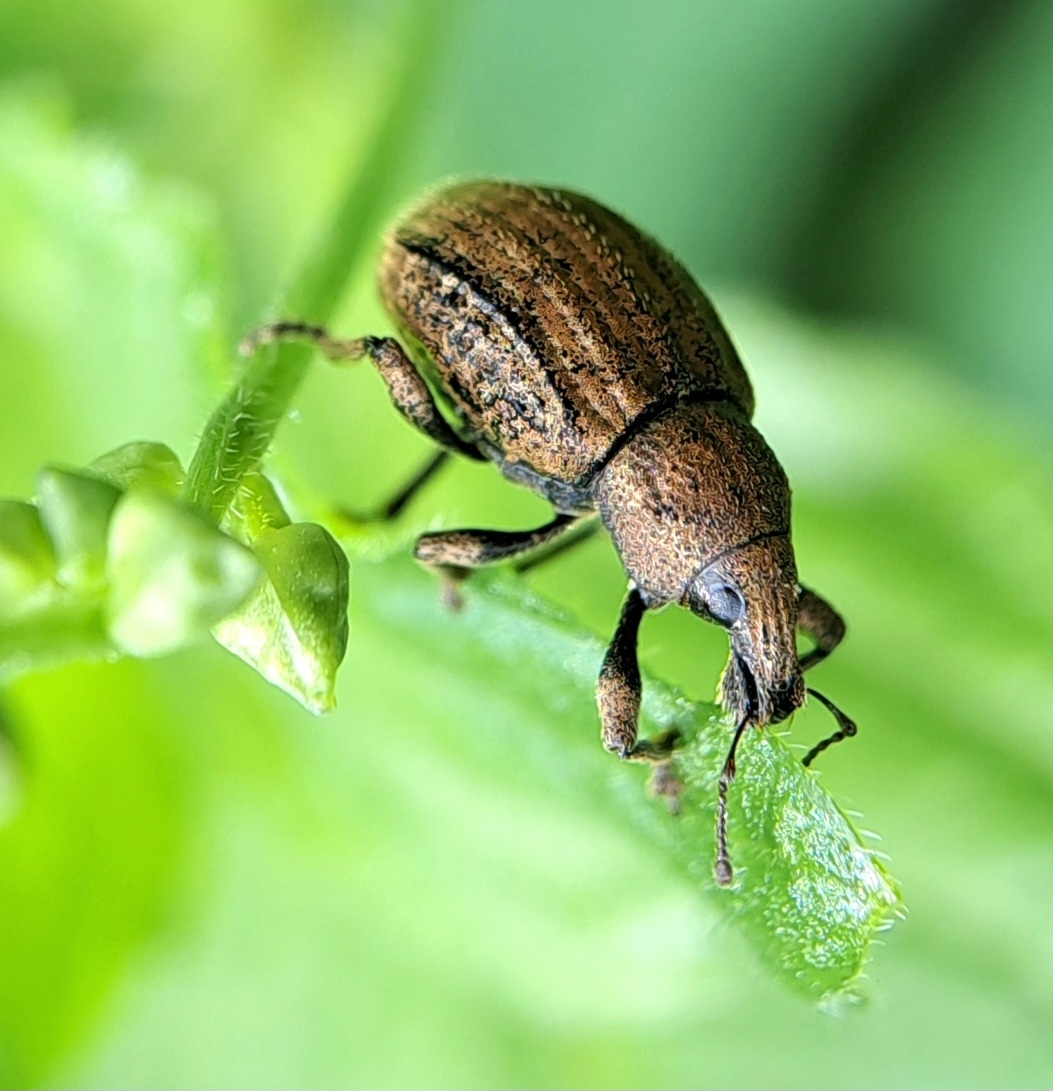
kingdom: Animalia
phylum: Arthropoda
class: Insecta
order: Coleoptera
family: Curculionidae
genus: Barynotus
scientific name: Barynotus moerens
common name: Weevil
